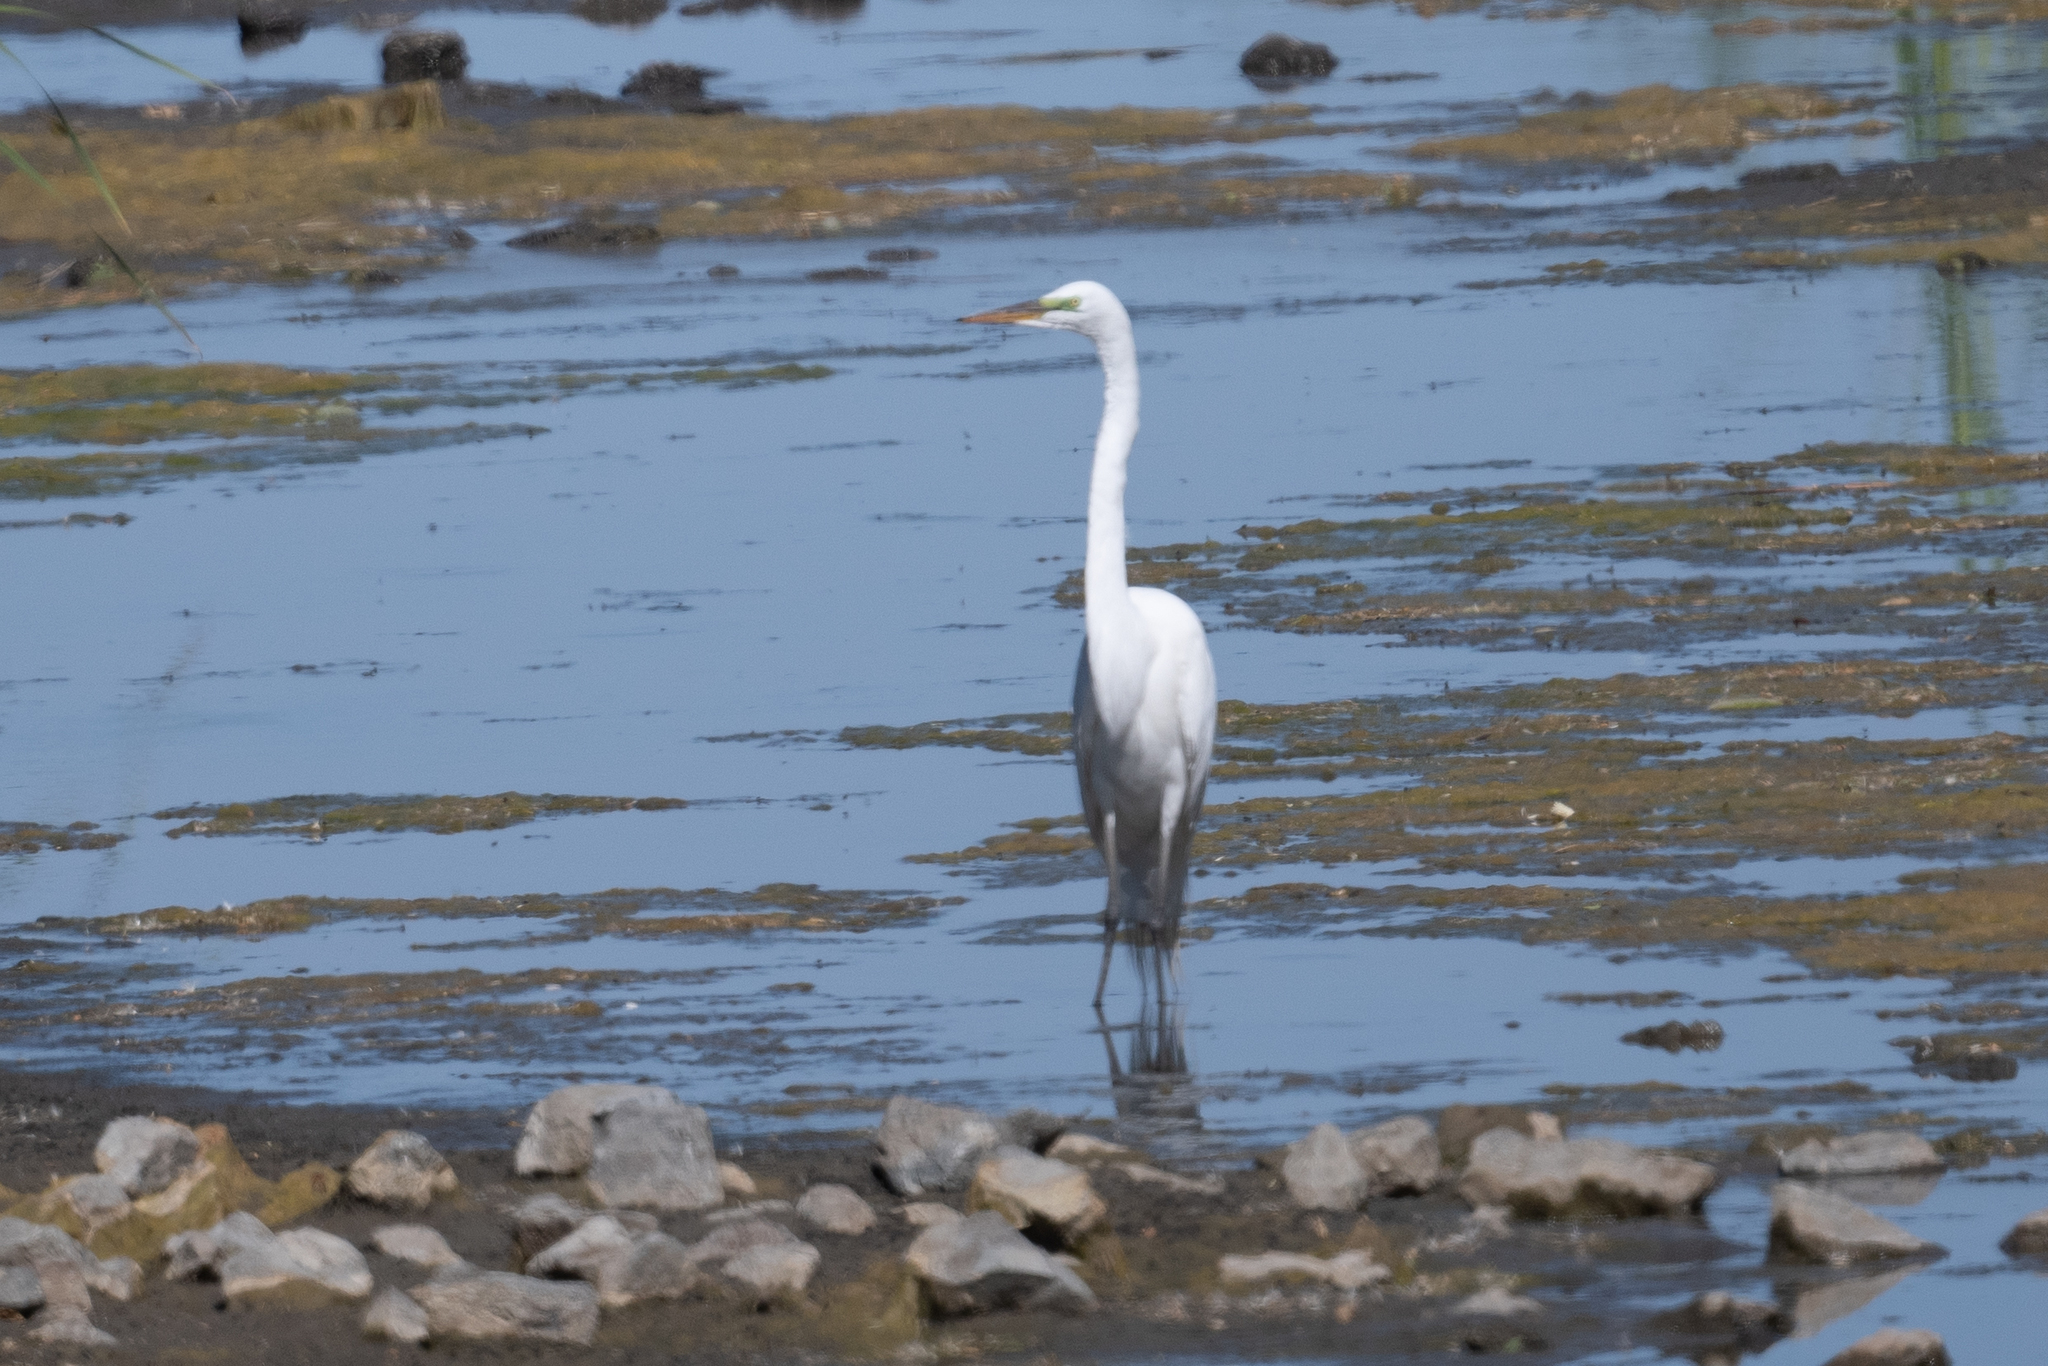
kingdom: Animalia
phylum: Chordata
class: Aves
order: Pelecaniformes
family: Ardeidae
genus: Ardea
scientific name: Ardea alba
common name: Great egret
